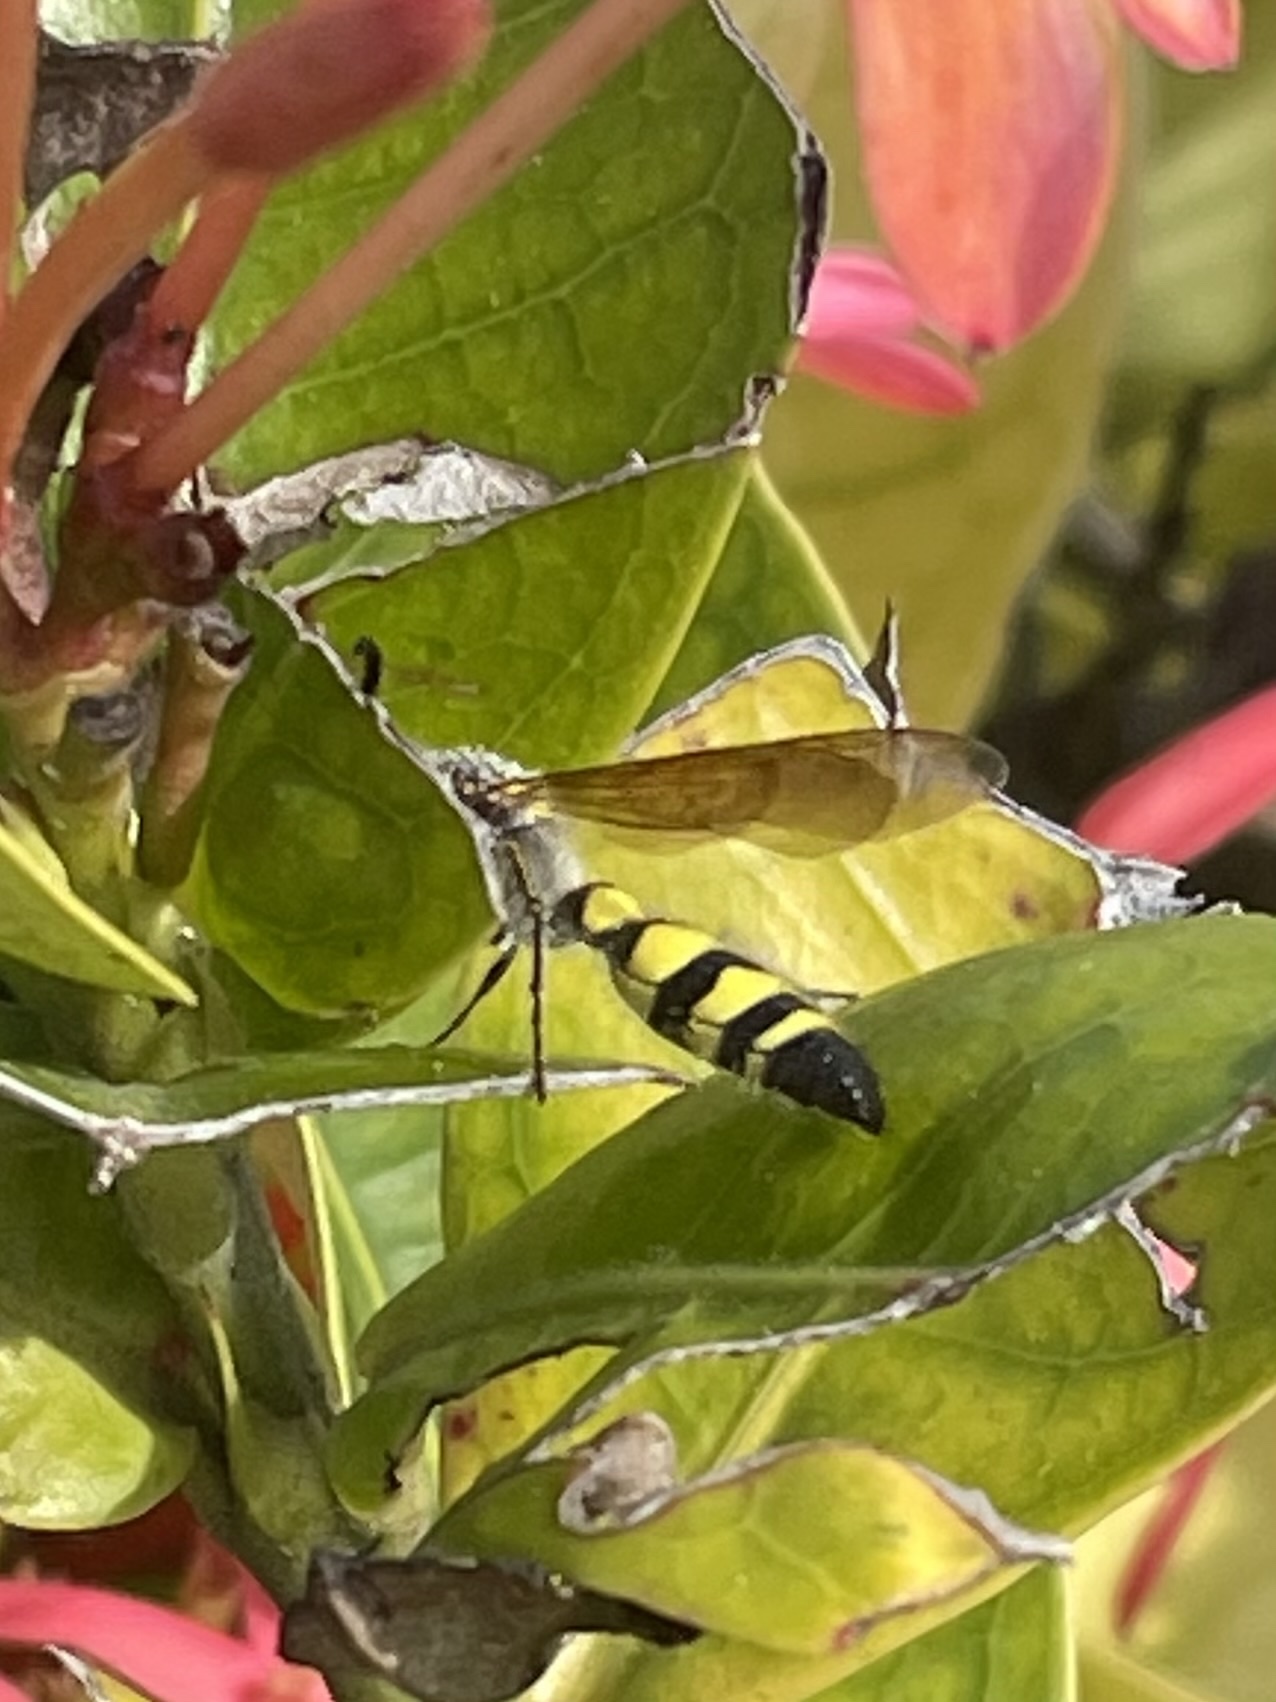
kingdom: Animalia
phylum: Arthropoda
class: Insecta
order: Hymenoptera
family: Scoliidae
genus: Dielis
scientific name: Dielis
